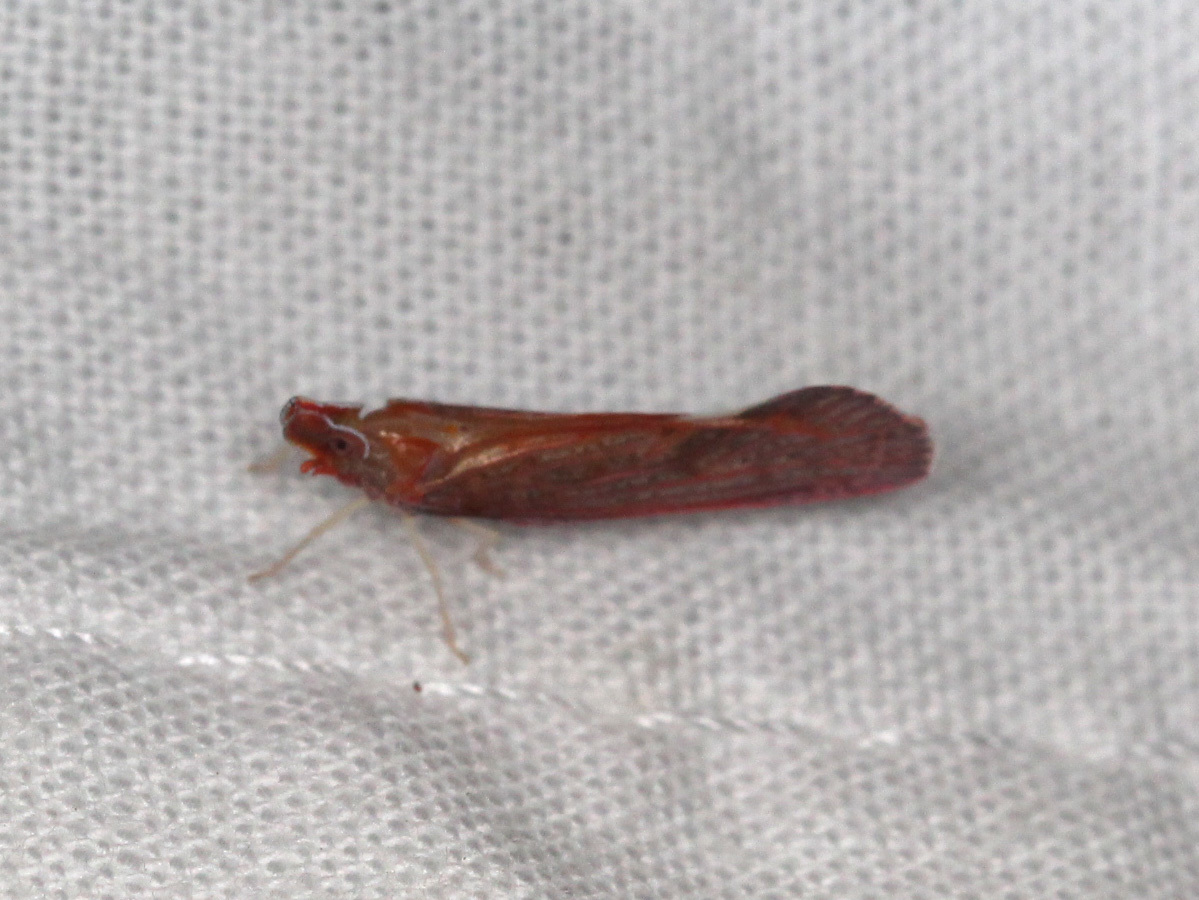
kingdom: Animalia
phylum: Arthropoda
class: Insecta
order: Hemiptera
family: Derbidae
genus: Apache
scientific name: Apache californicum
